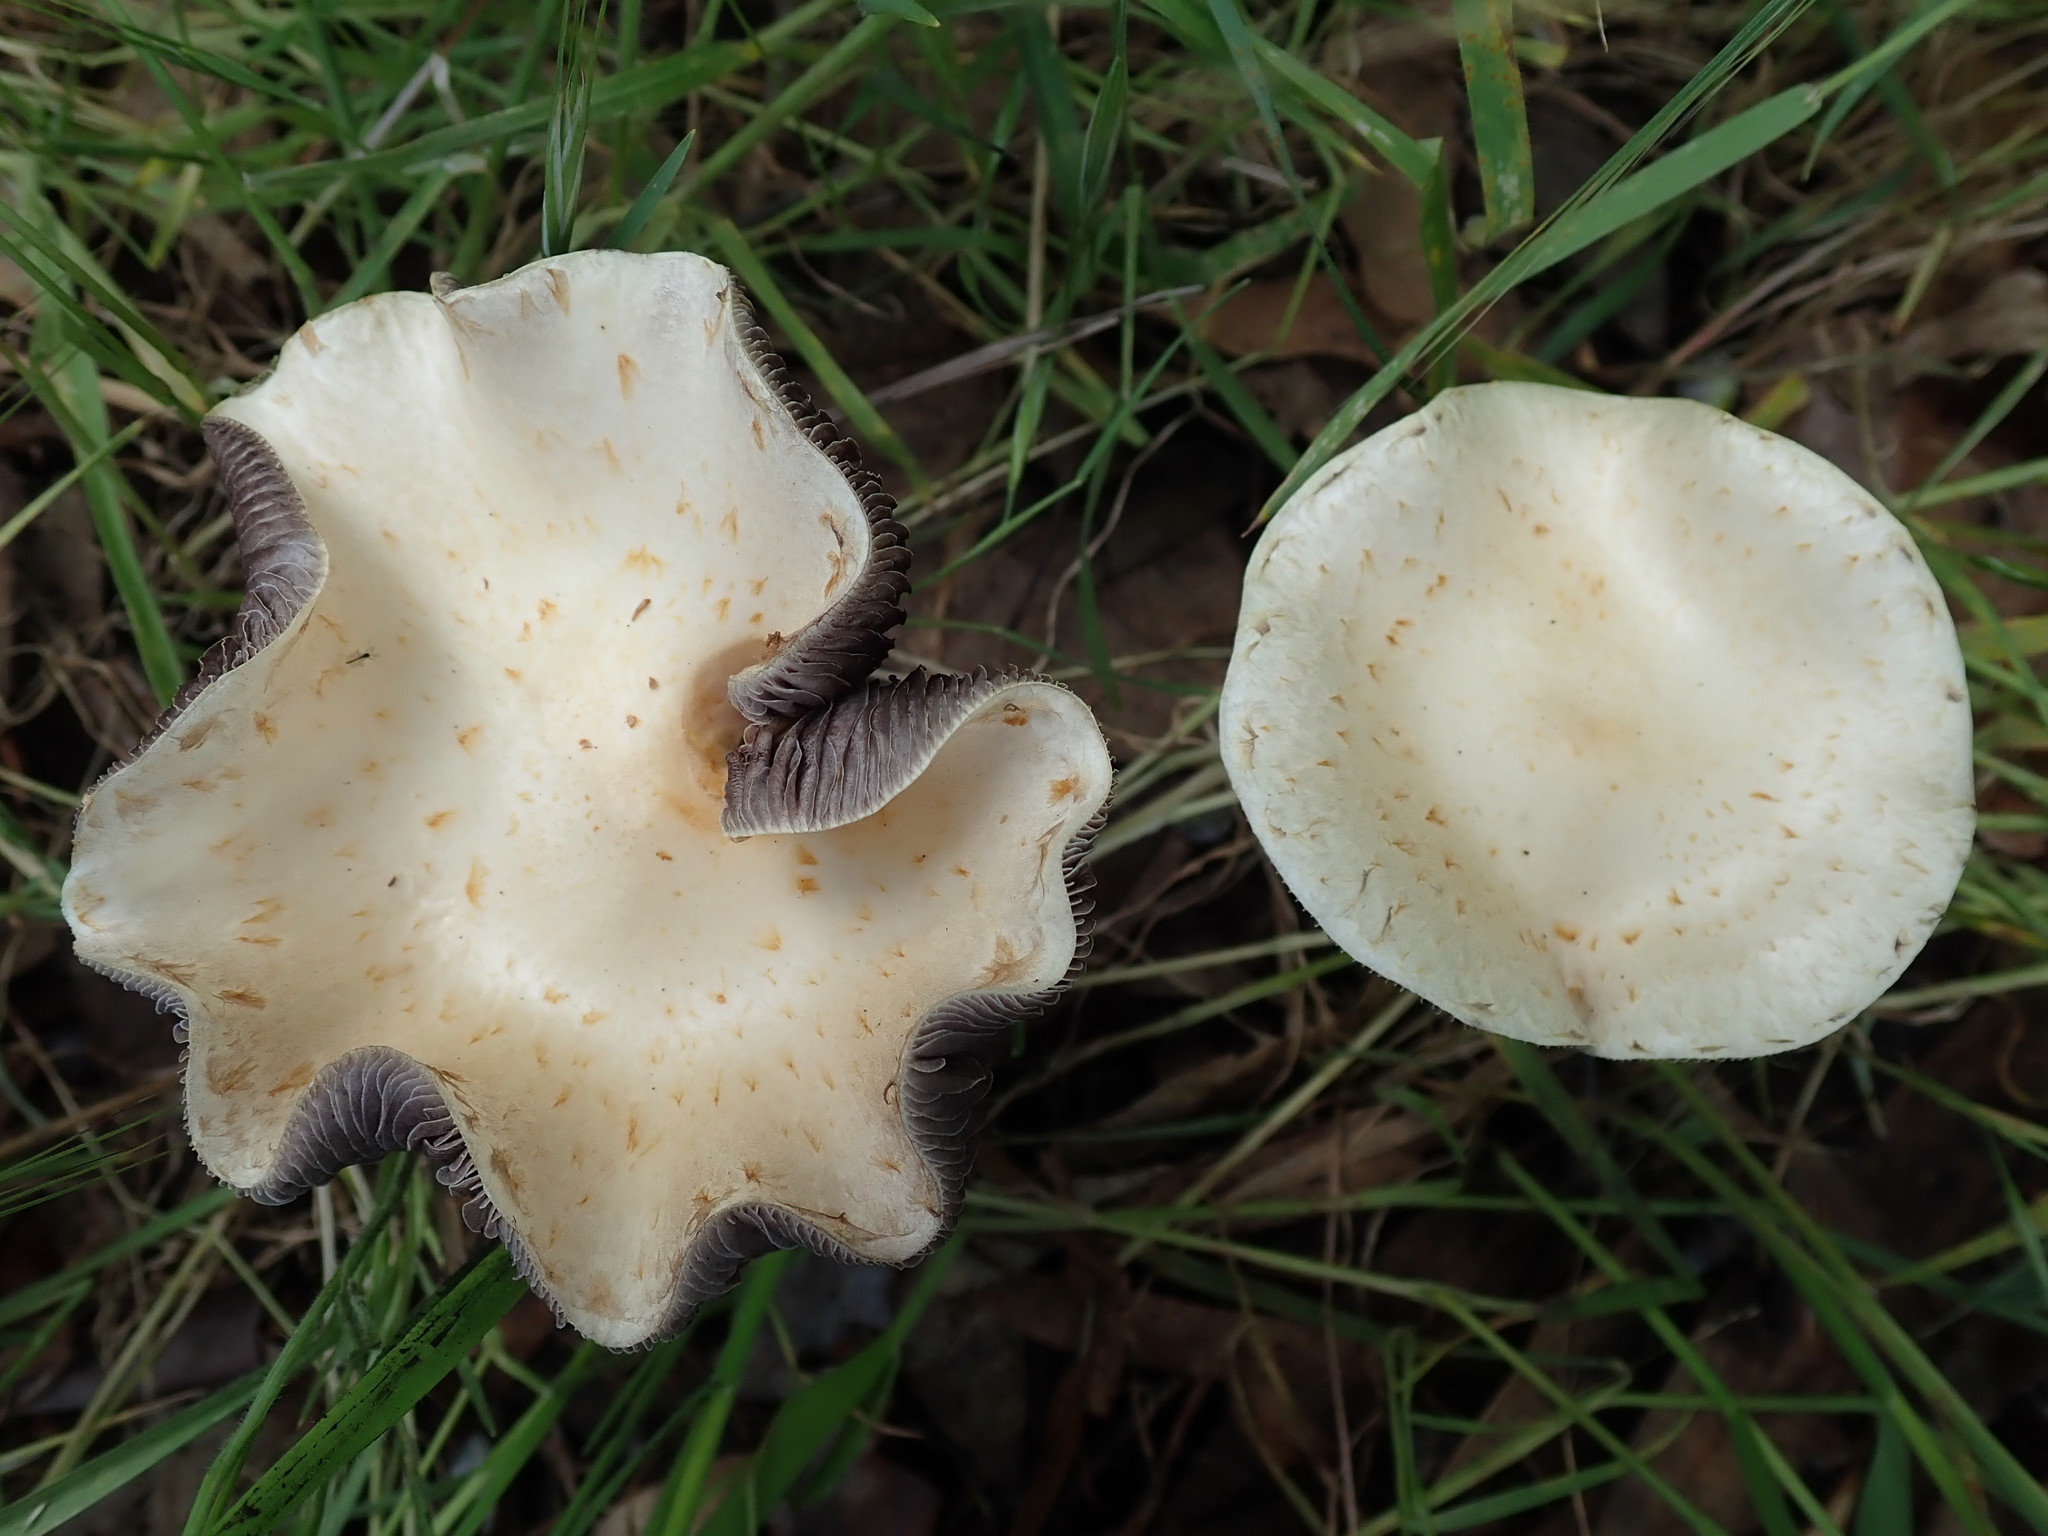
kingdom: Fungi
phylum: Basidiomycota
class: Agaricomycetes
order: Agaricales
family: Strophariaceae
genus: Leratiomyces
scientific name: Leratiomyces percevalii
